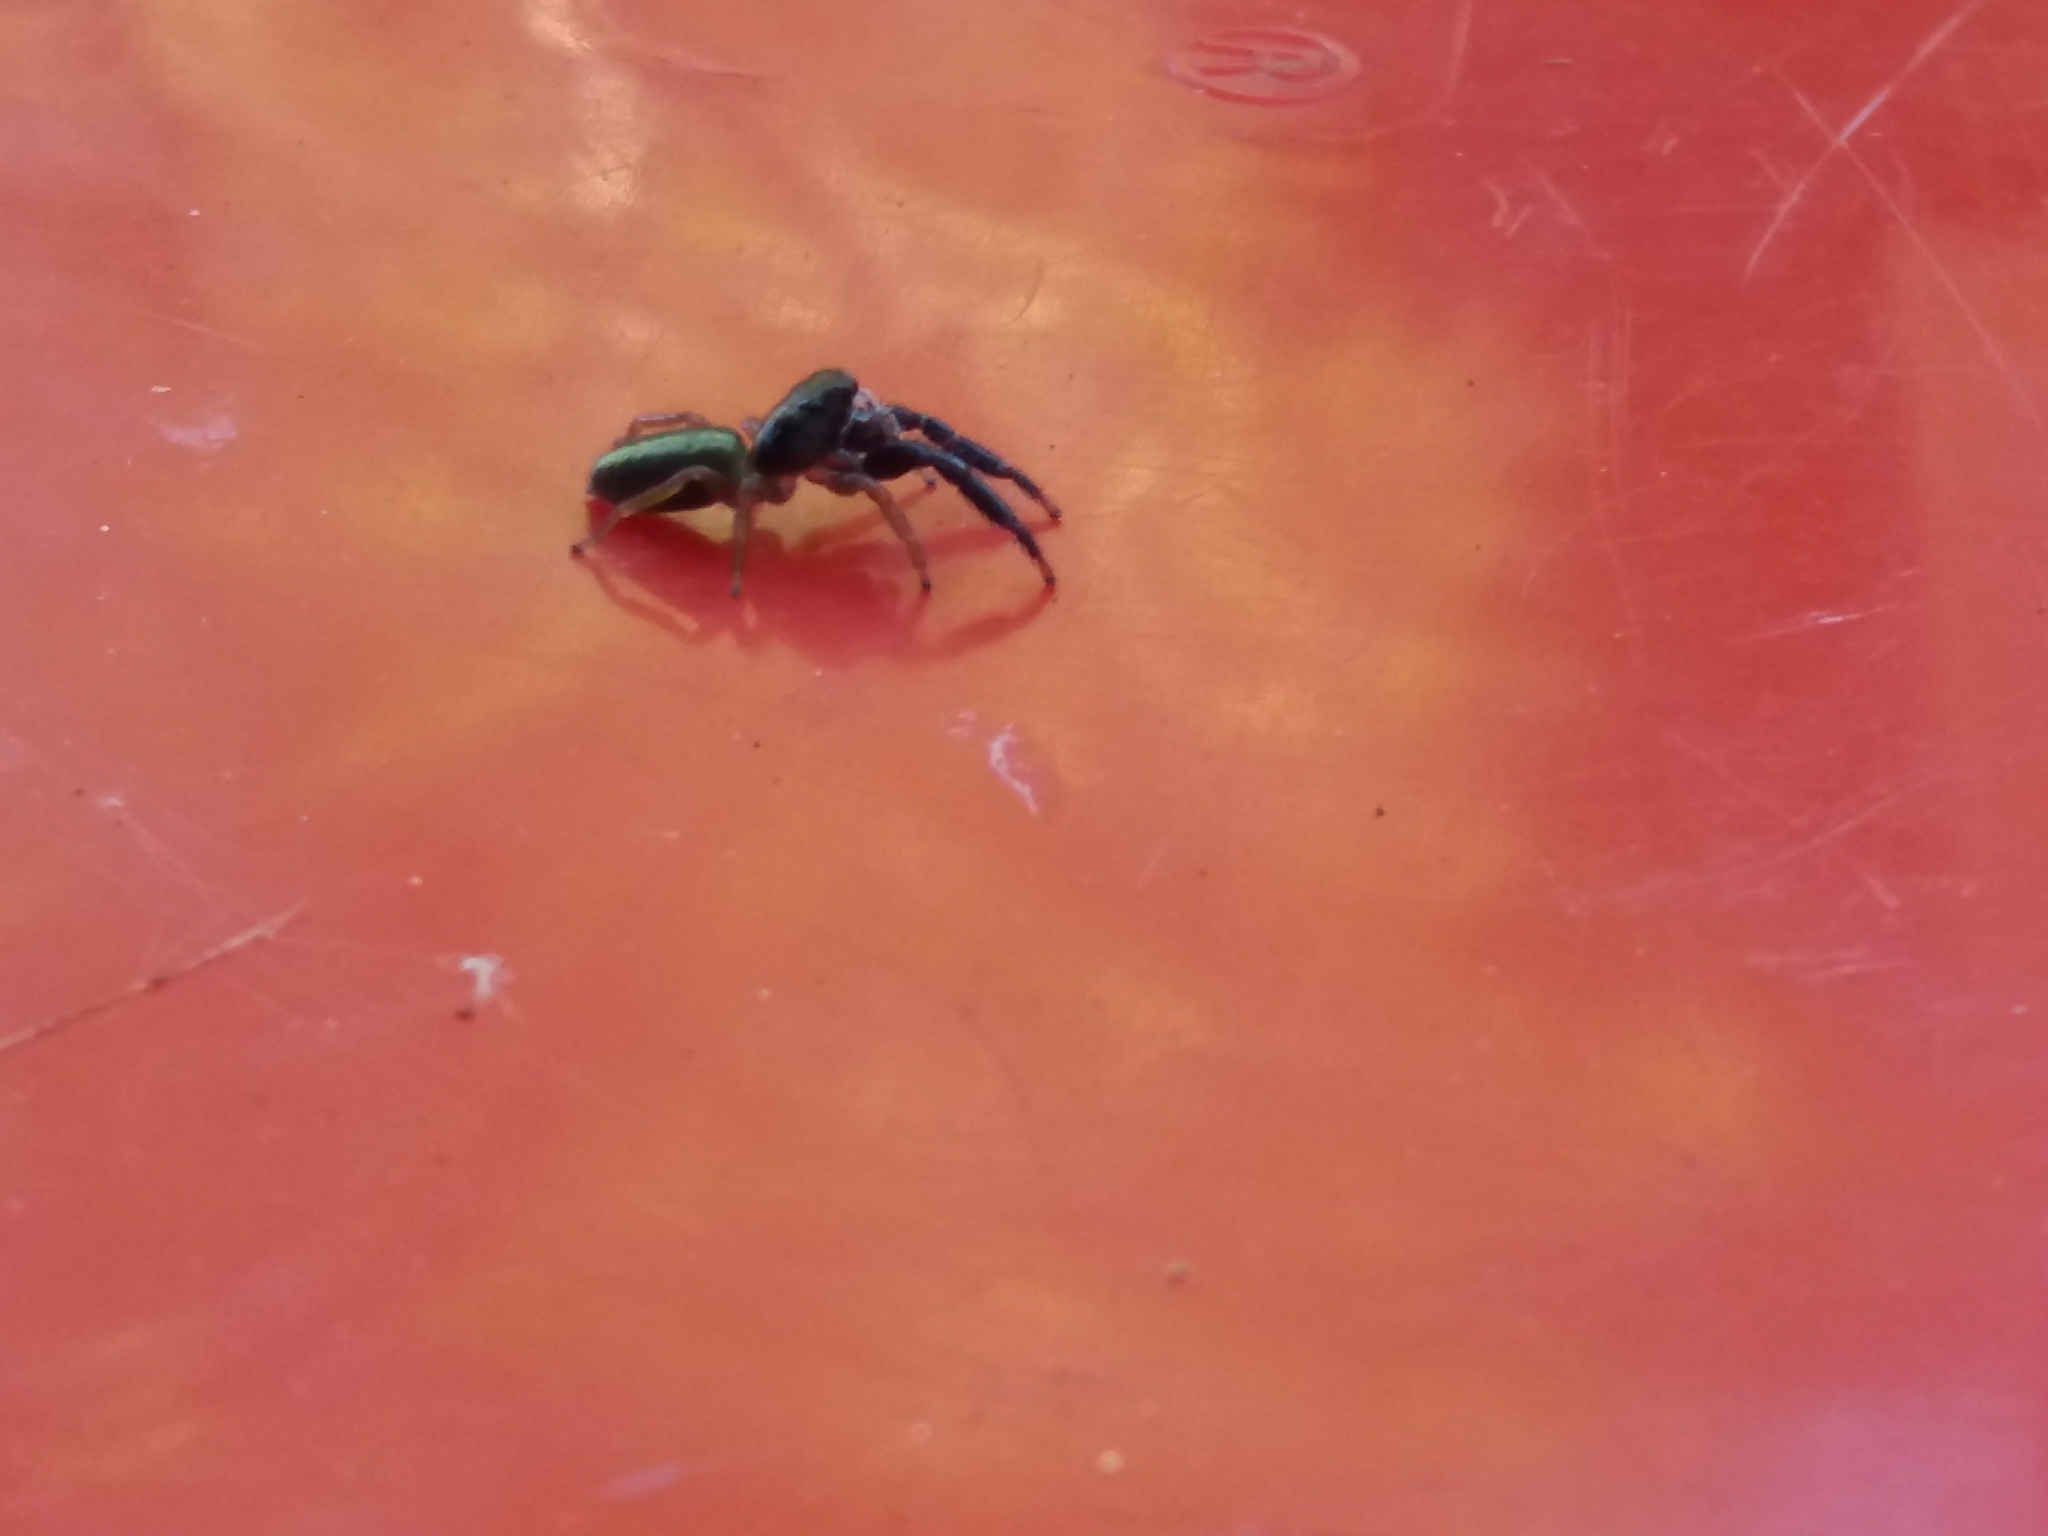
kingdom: Animalia
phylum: Arthropoda
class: Arachnida
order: Araneae
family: Salticidae
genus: Trite
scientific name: Trite planiceps
